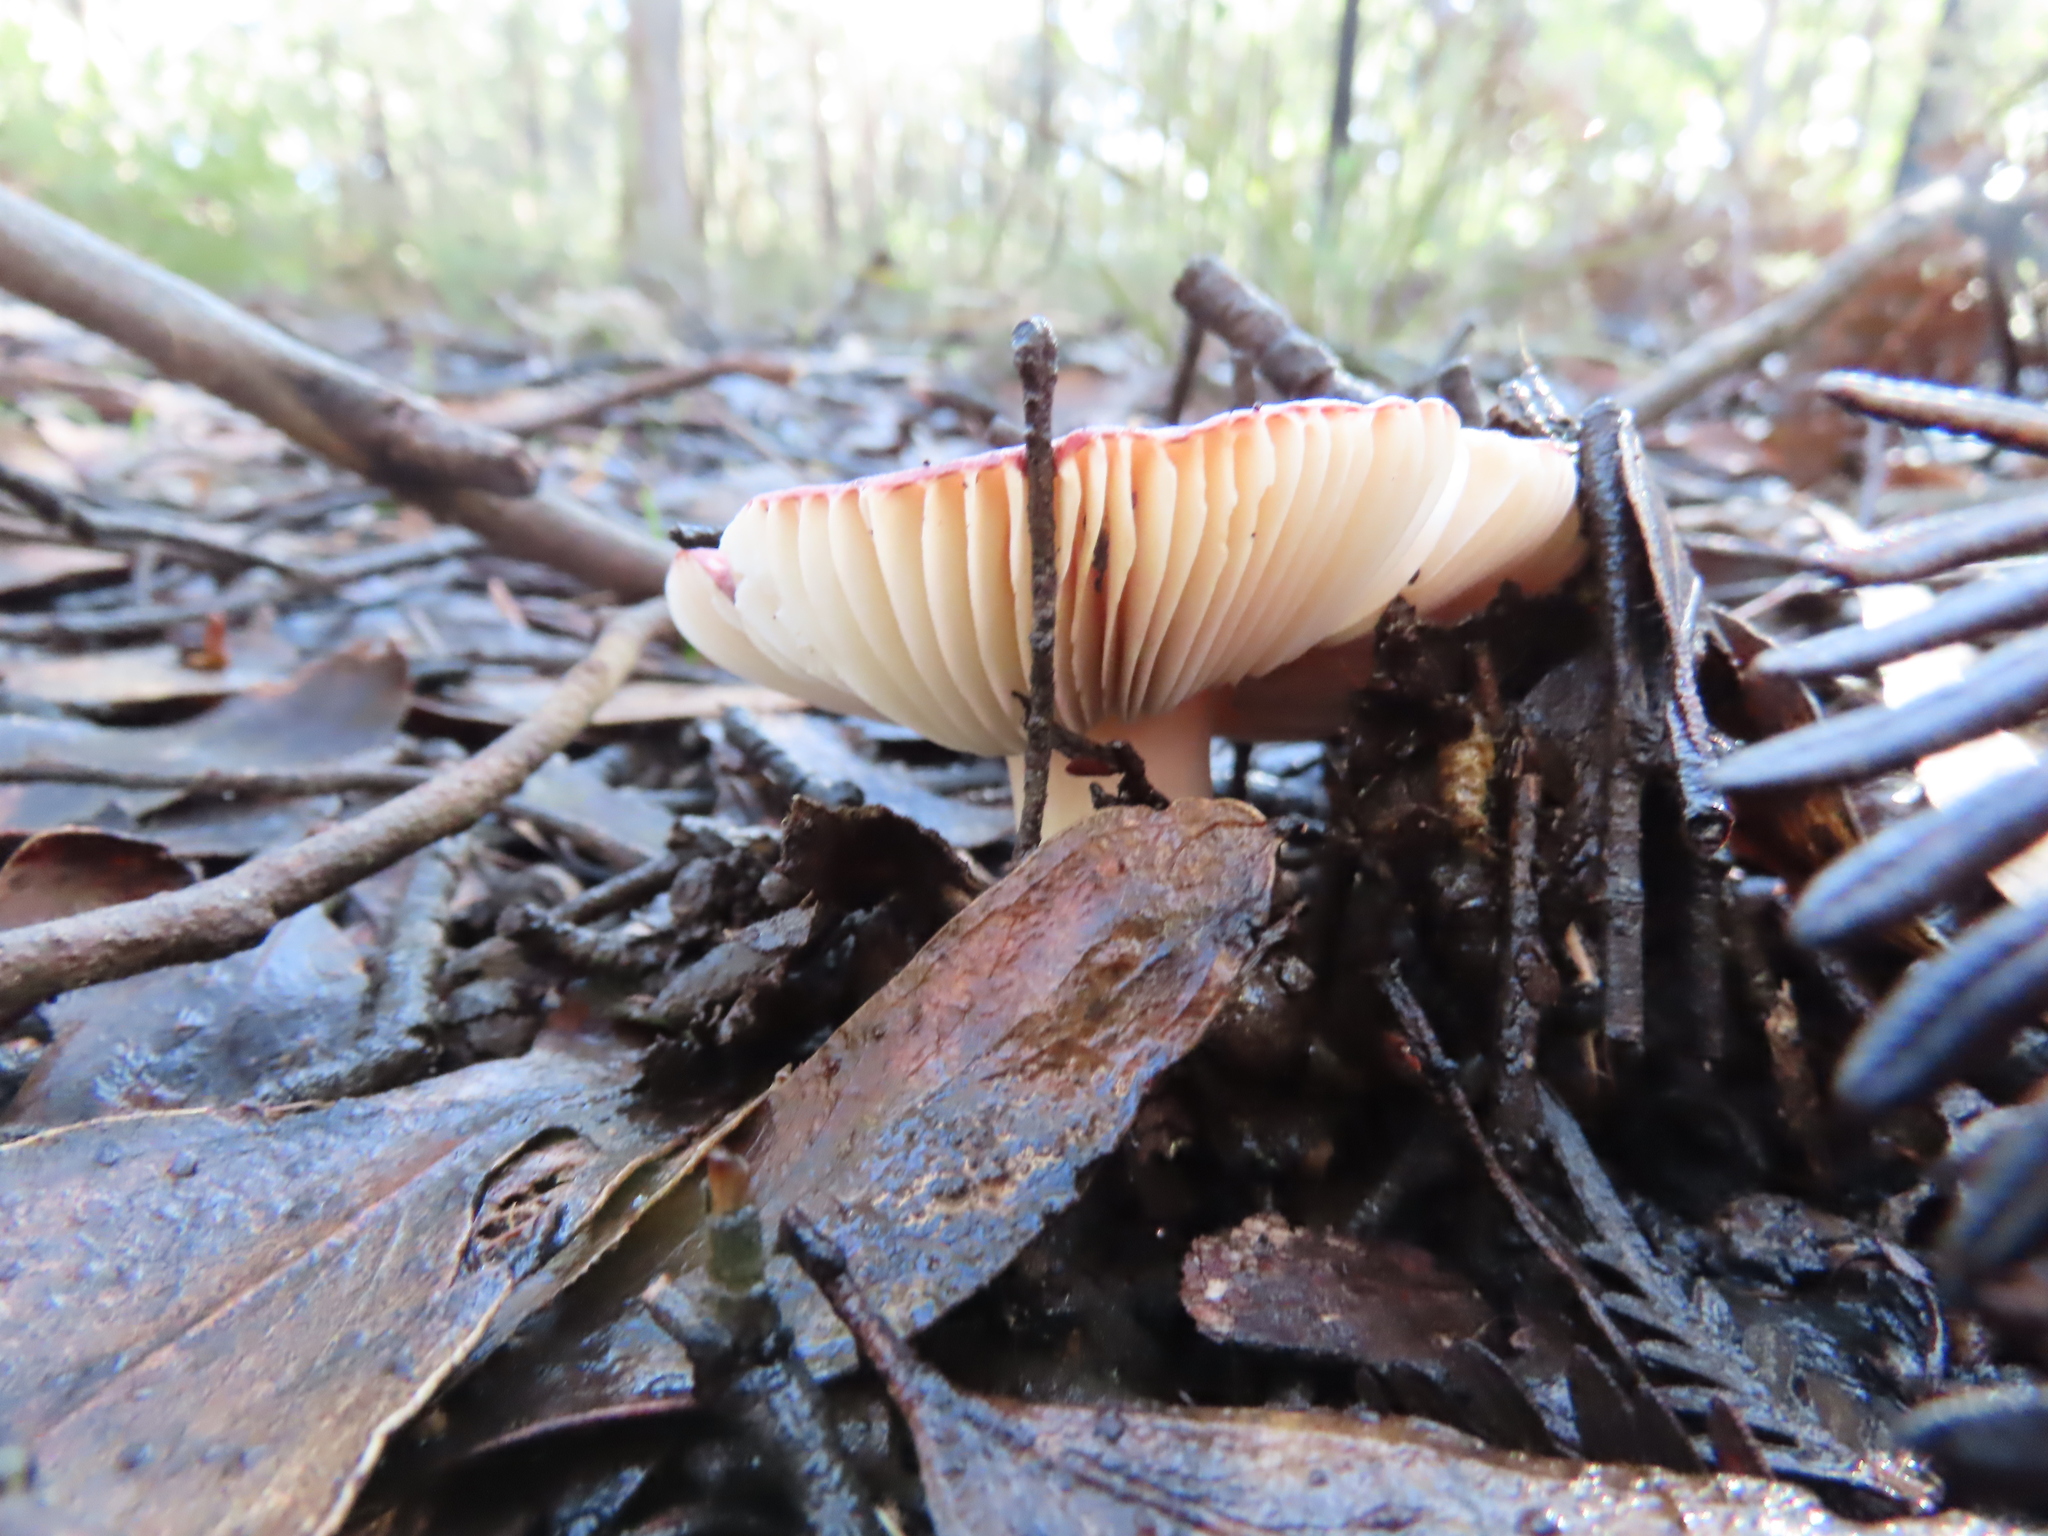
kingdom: Fungi
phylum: Basidiomycota
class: Agaricomycetes
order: Russulales
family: Russulaceae
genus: Russula
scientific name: Russula persanguinea
